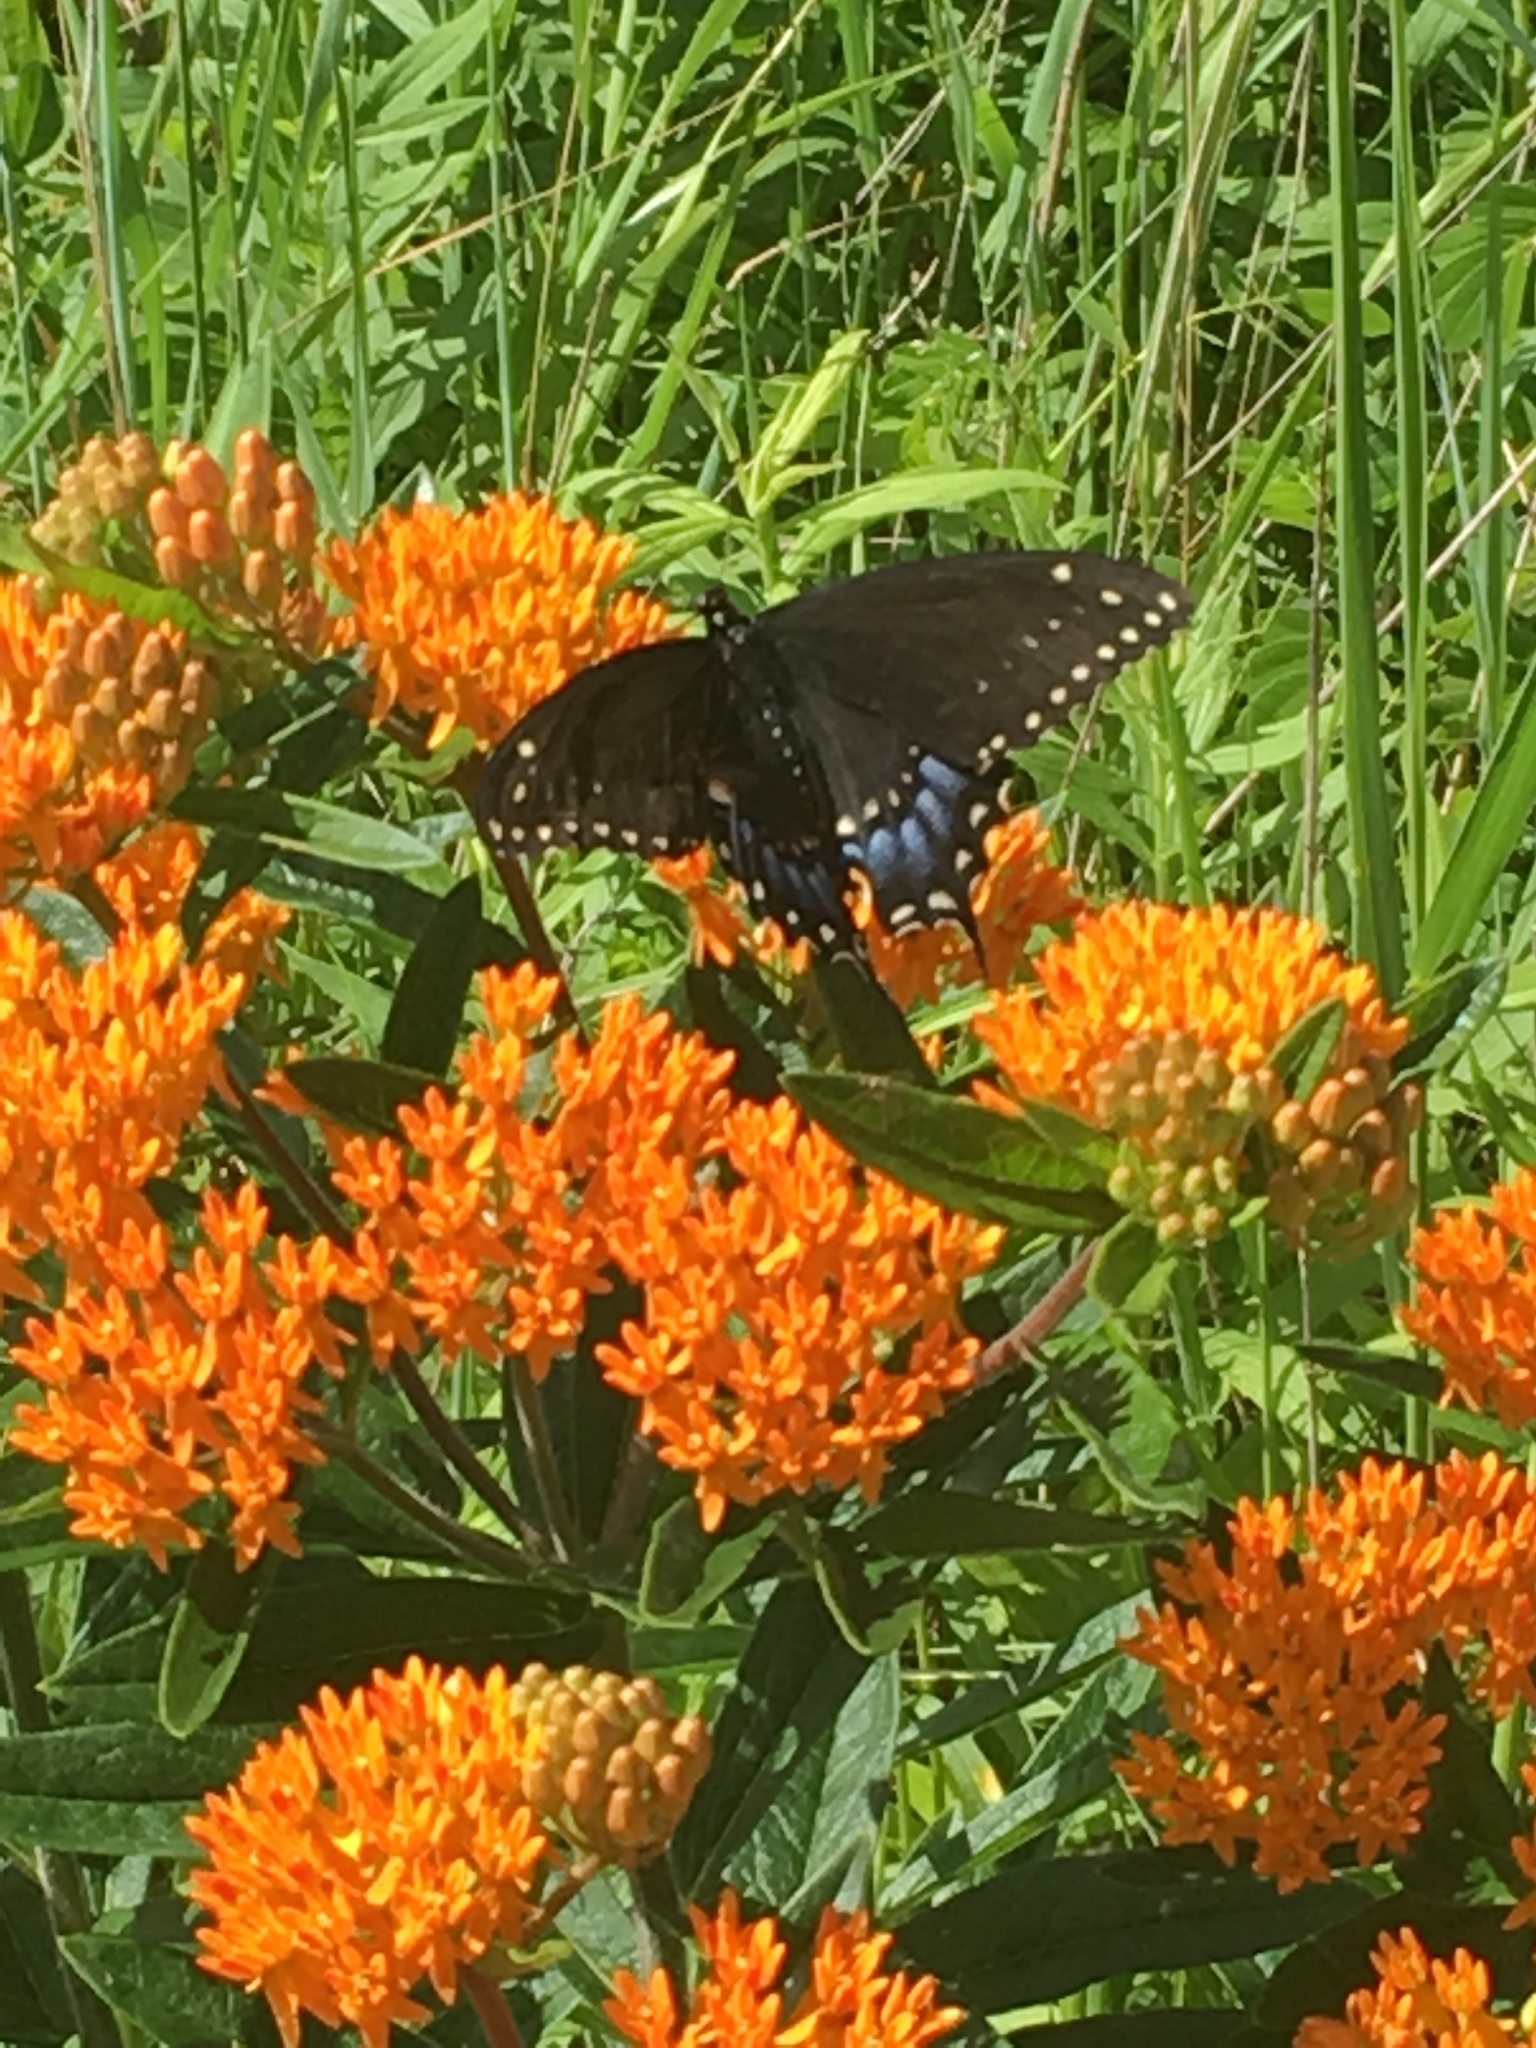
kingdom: Plantae
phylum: Tracheophyta
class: Magnoliopsida
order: Gentianales
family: Apocynaceae
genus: Asclepias
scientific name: Asclepias tuberosa
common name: Butterfly milkweed
